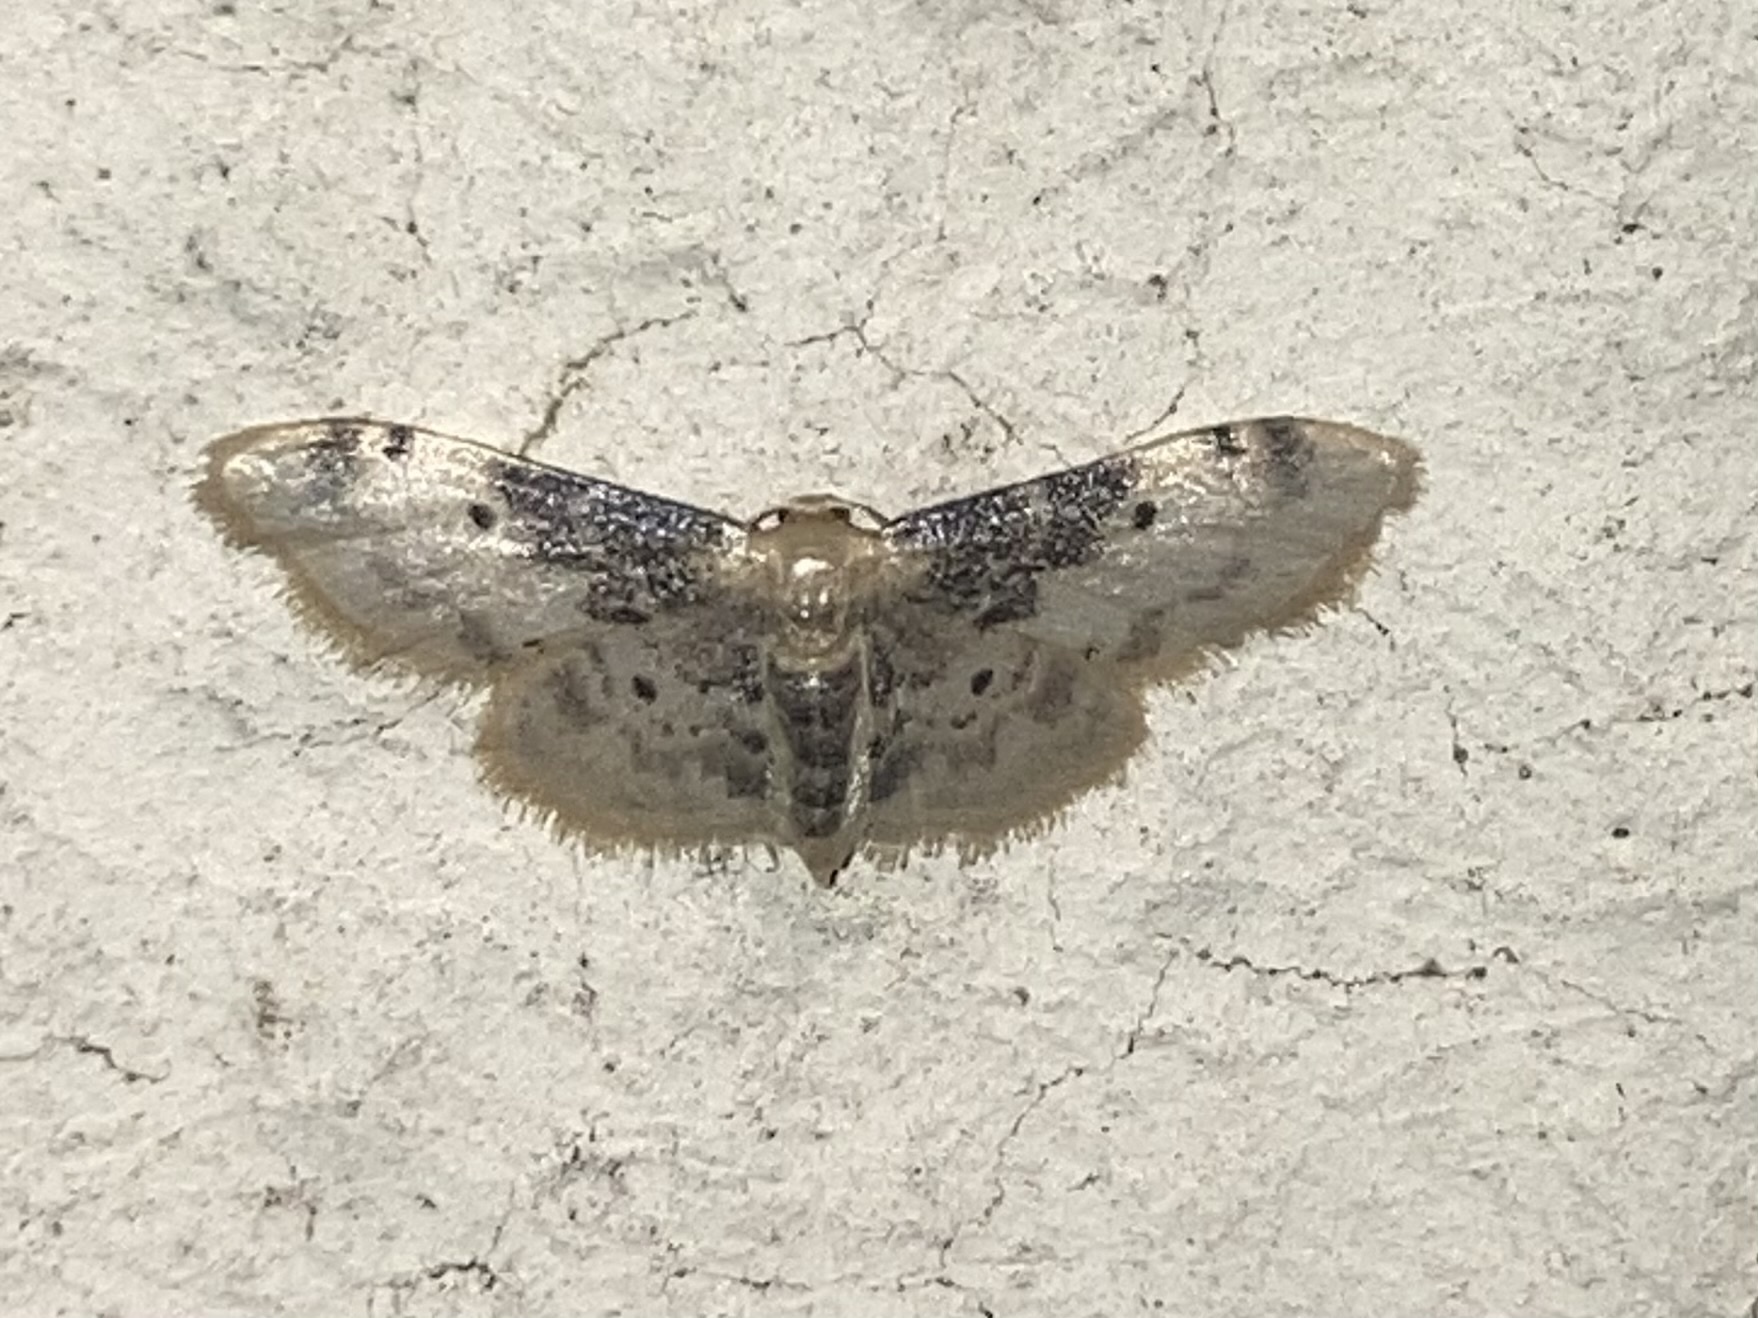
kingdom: Animalia
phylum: Arthropoda
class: Insecta
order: Lepidoptera
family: Geometridae
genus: Idaea
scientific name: Idaea filicata
